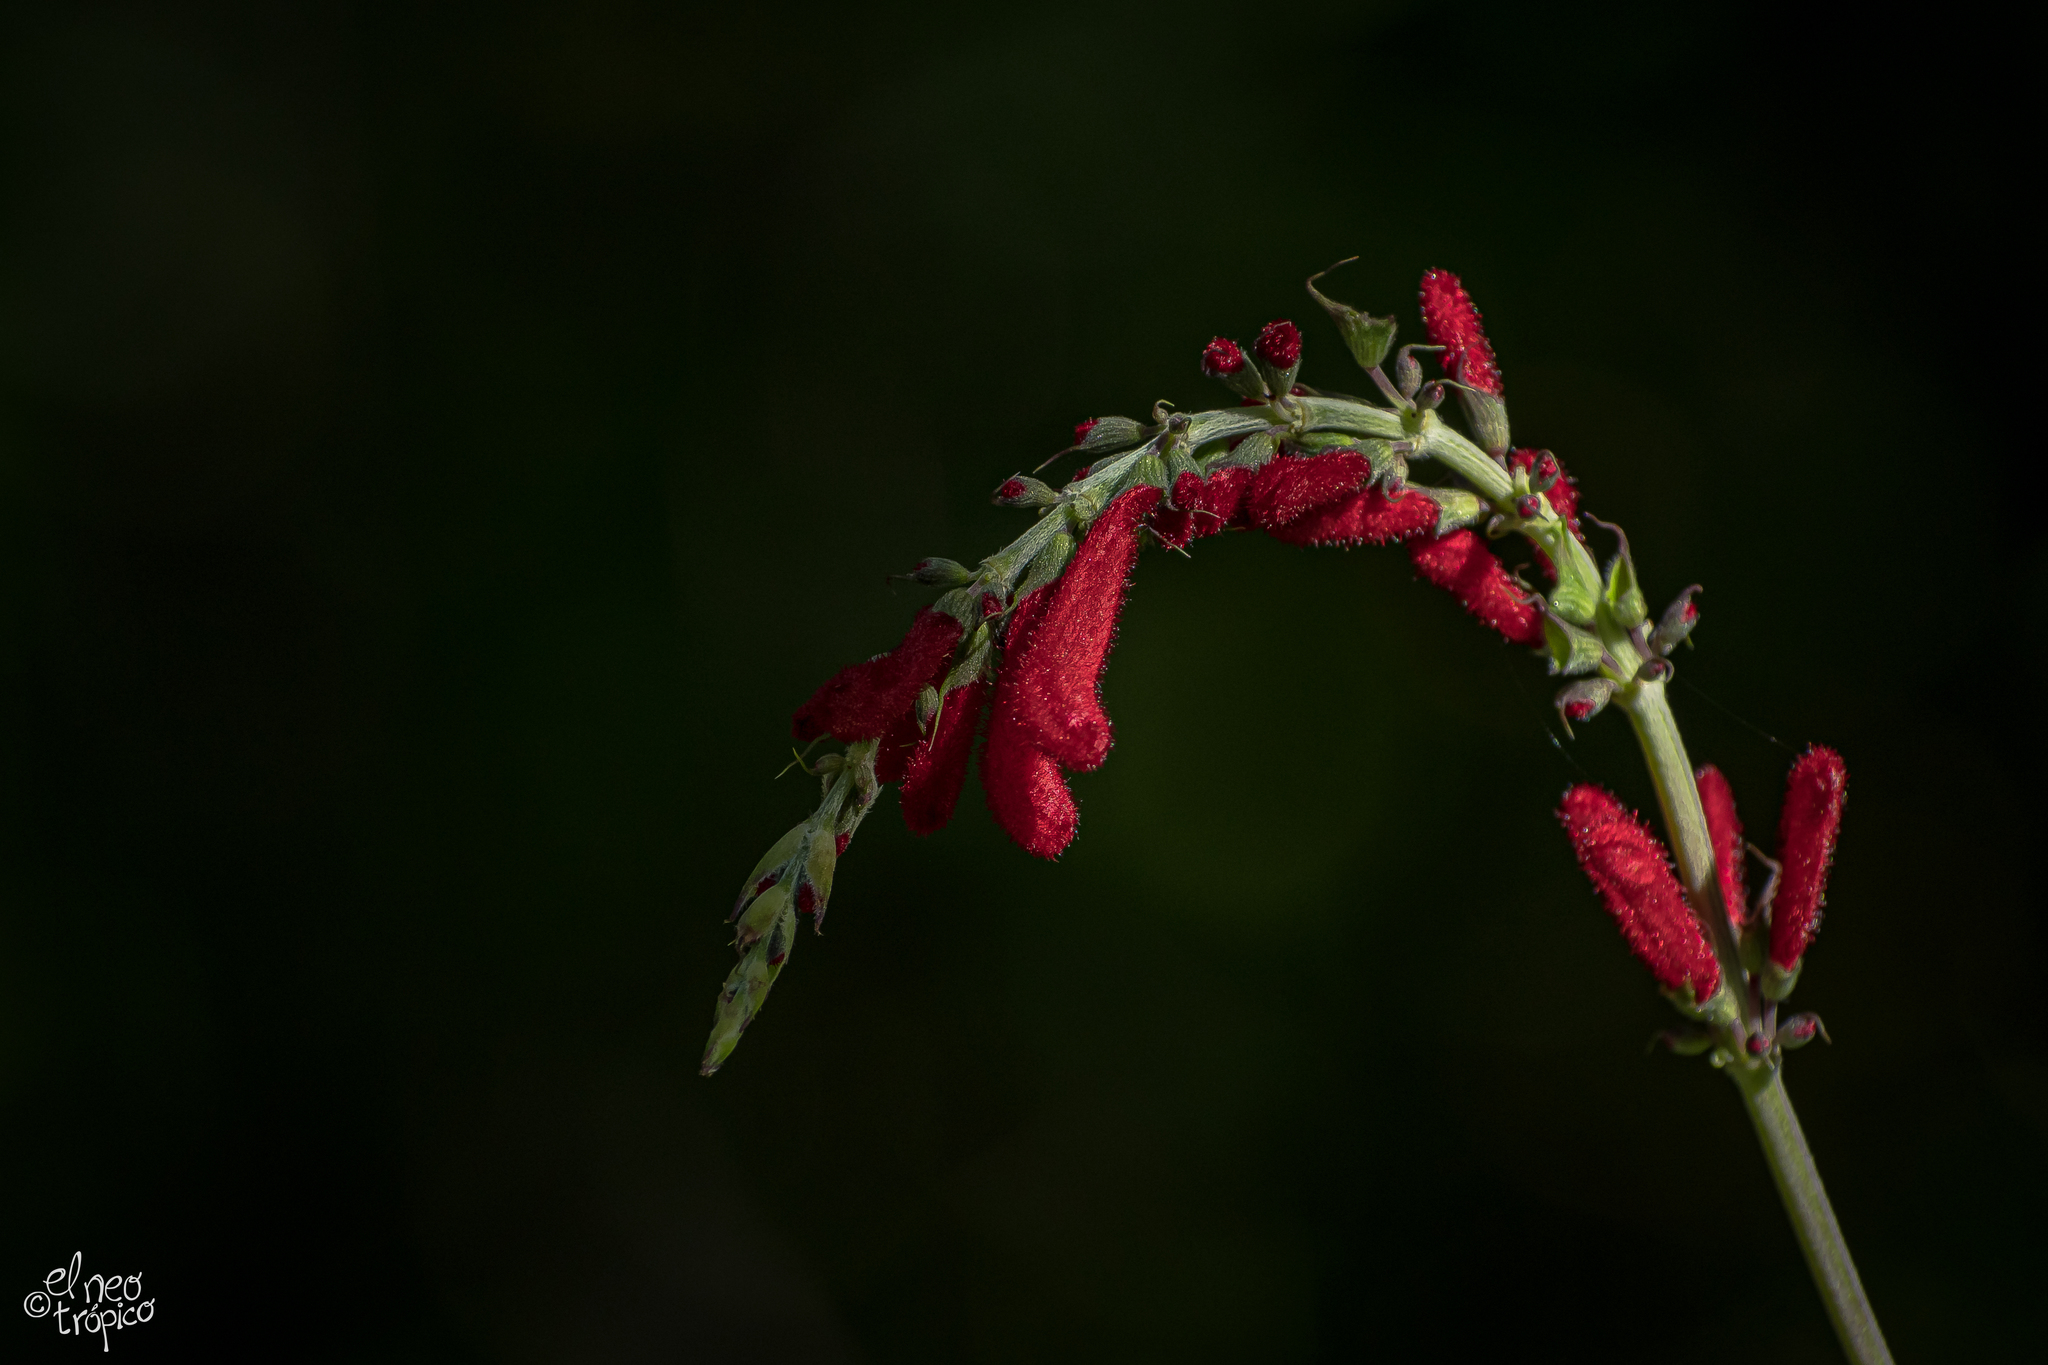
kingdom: Plantae
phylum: Tracheophyta
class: Magnoliopsida
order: Lamiales
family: Lamiaceae
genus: Salvia
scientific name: Salvia cinnabarina
